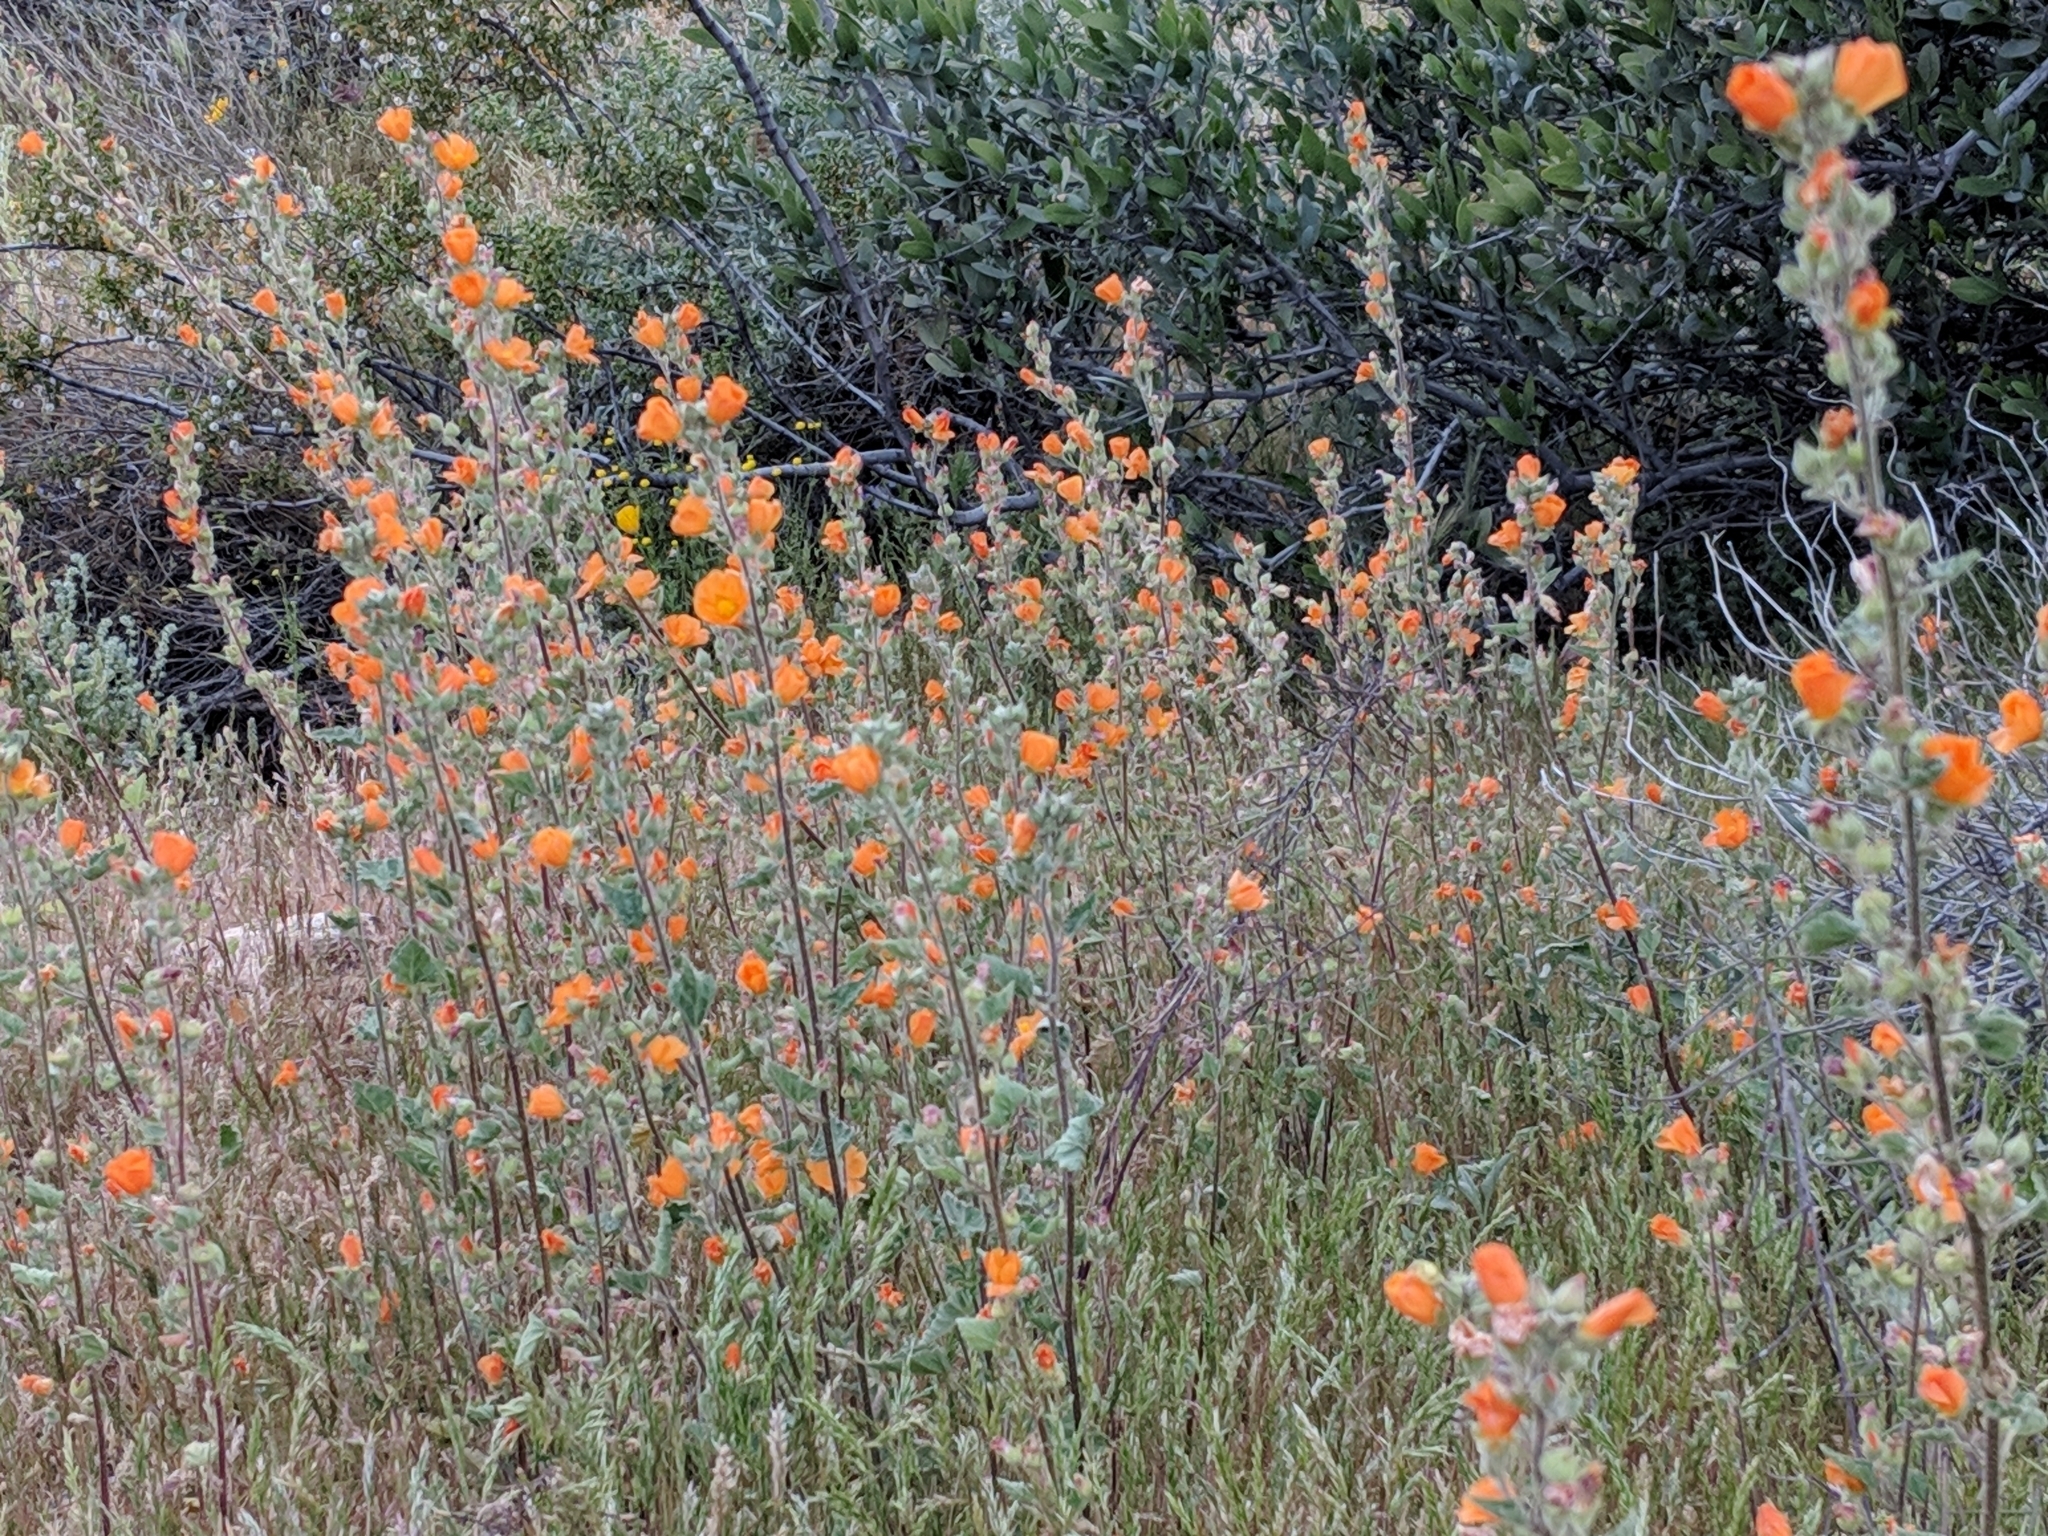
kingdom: Plantae
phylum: Tracheophyta
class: Magnoliopsida
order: Malvales
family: Malvaceae
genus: Sphaeralcea
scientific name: Sphaeralcea coulteri
